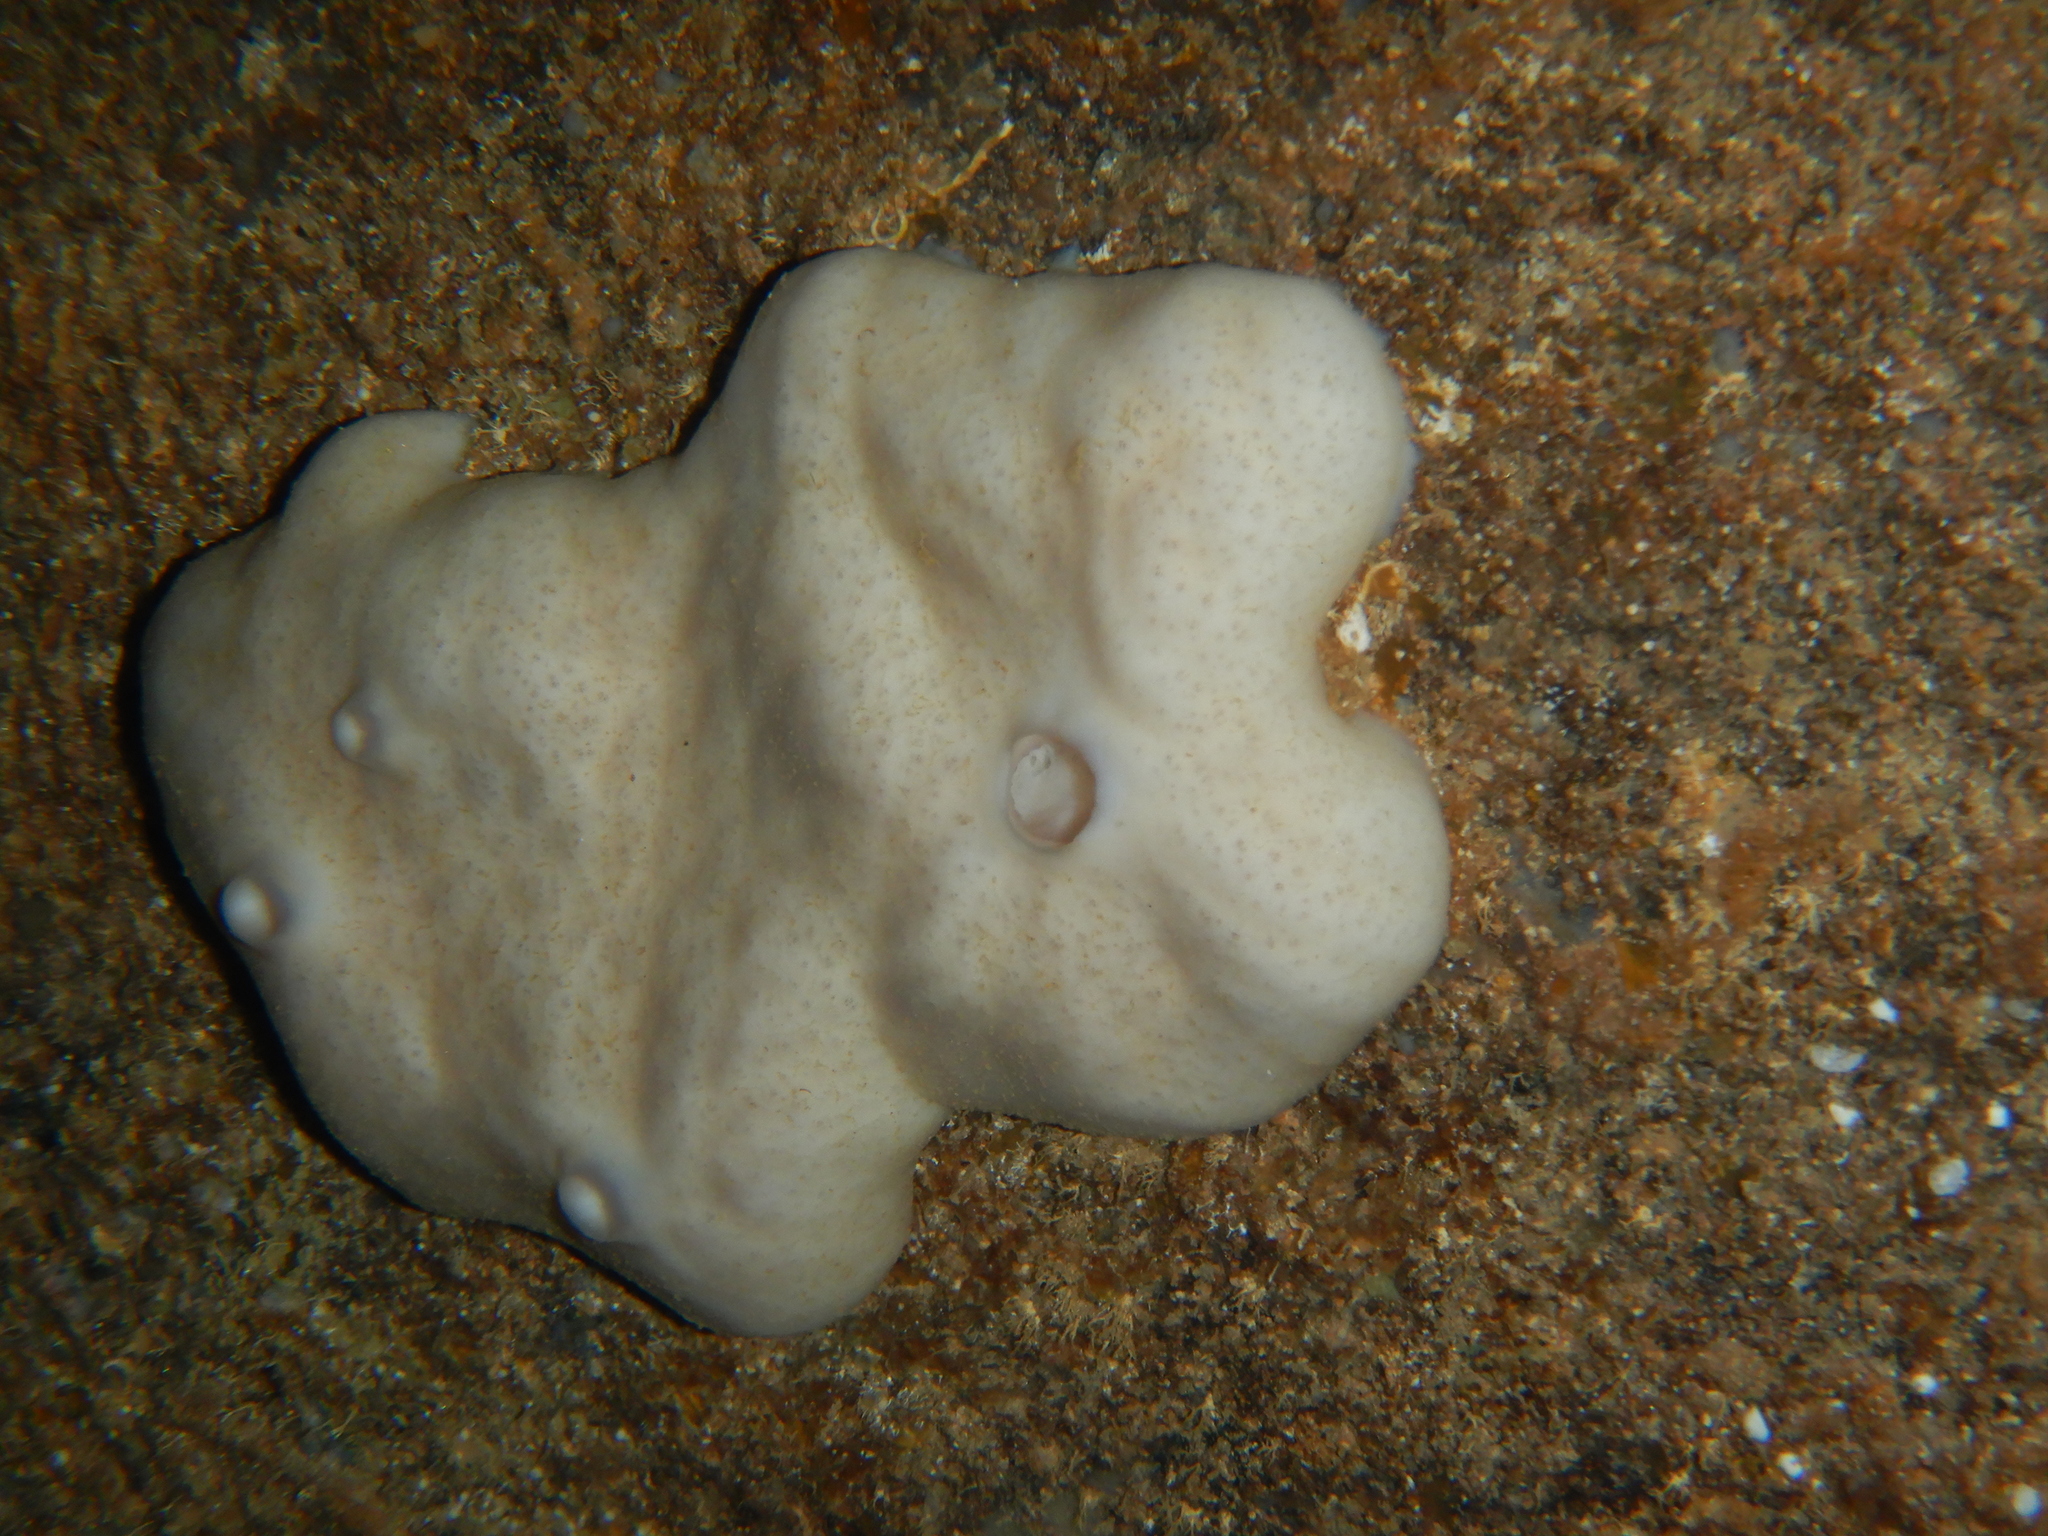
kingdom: Animalia
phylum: Porifera
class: Demospongiae
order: Chondrosiida
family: Chondrosiidae
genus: Chondrosia
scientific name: Chondrosia reniformis
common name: Chicken liver sponge
